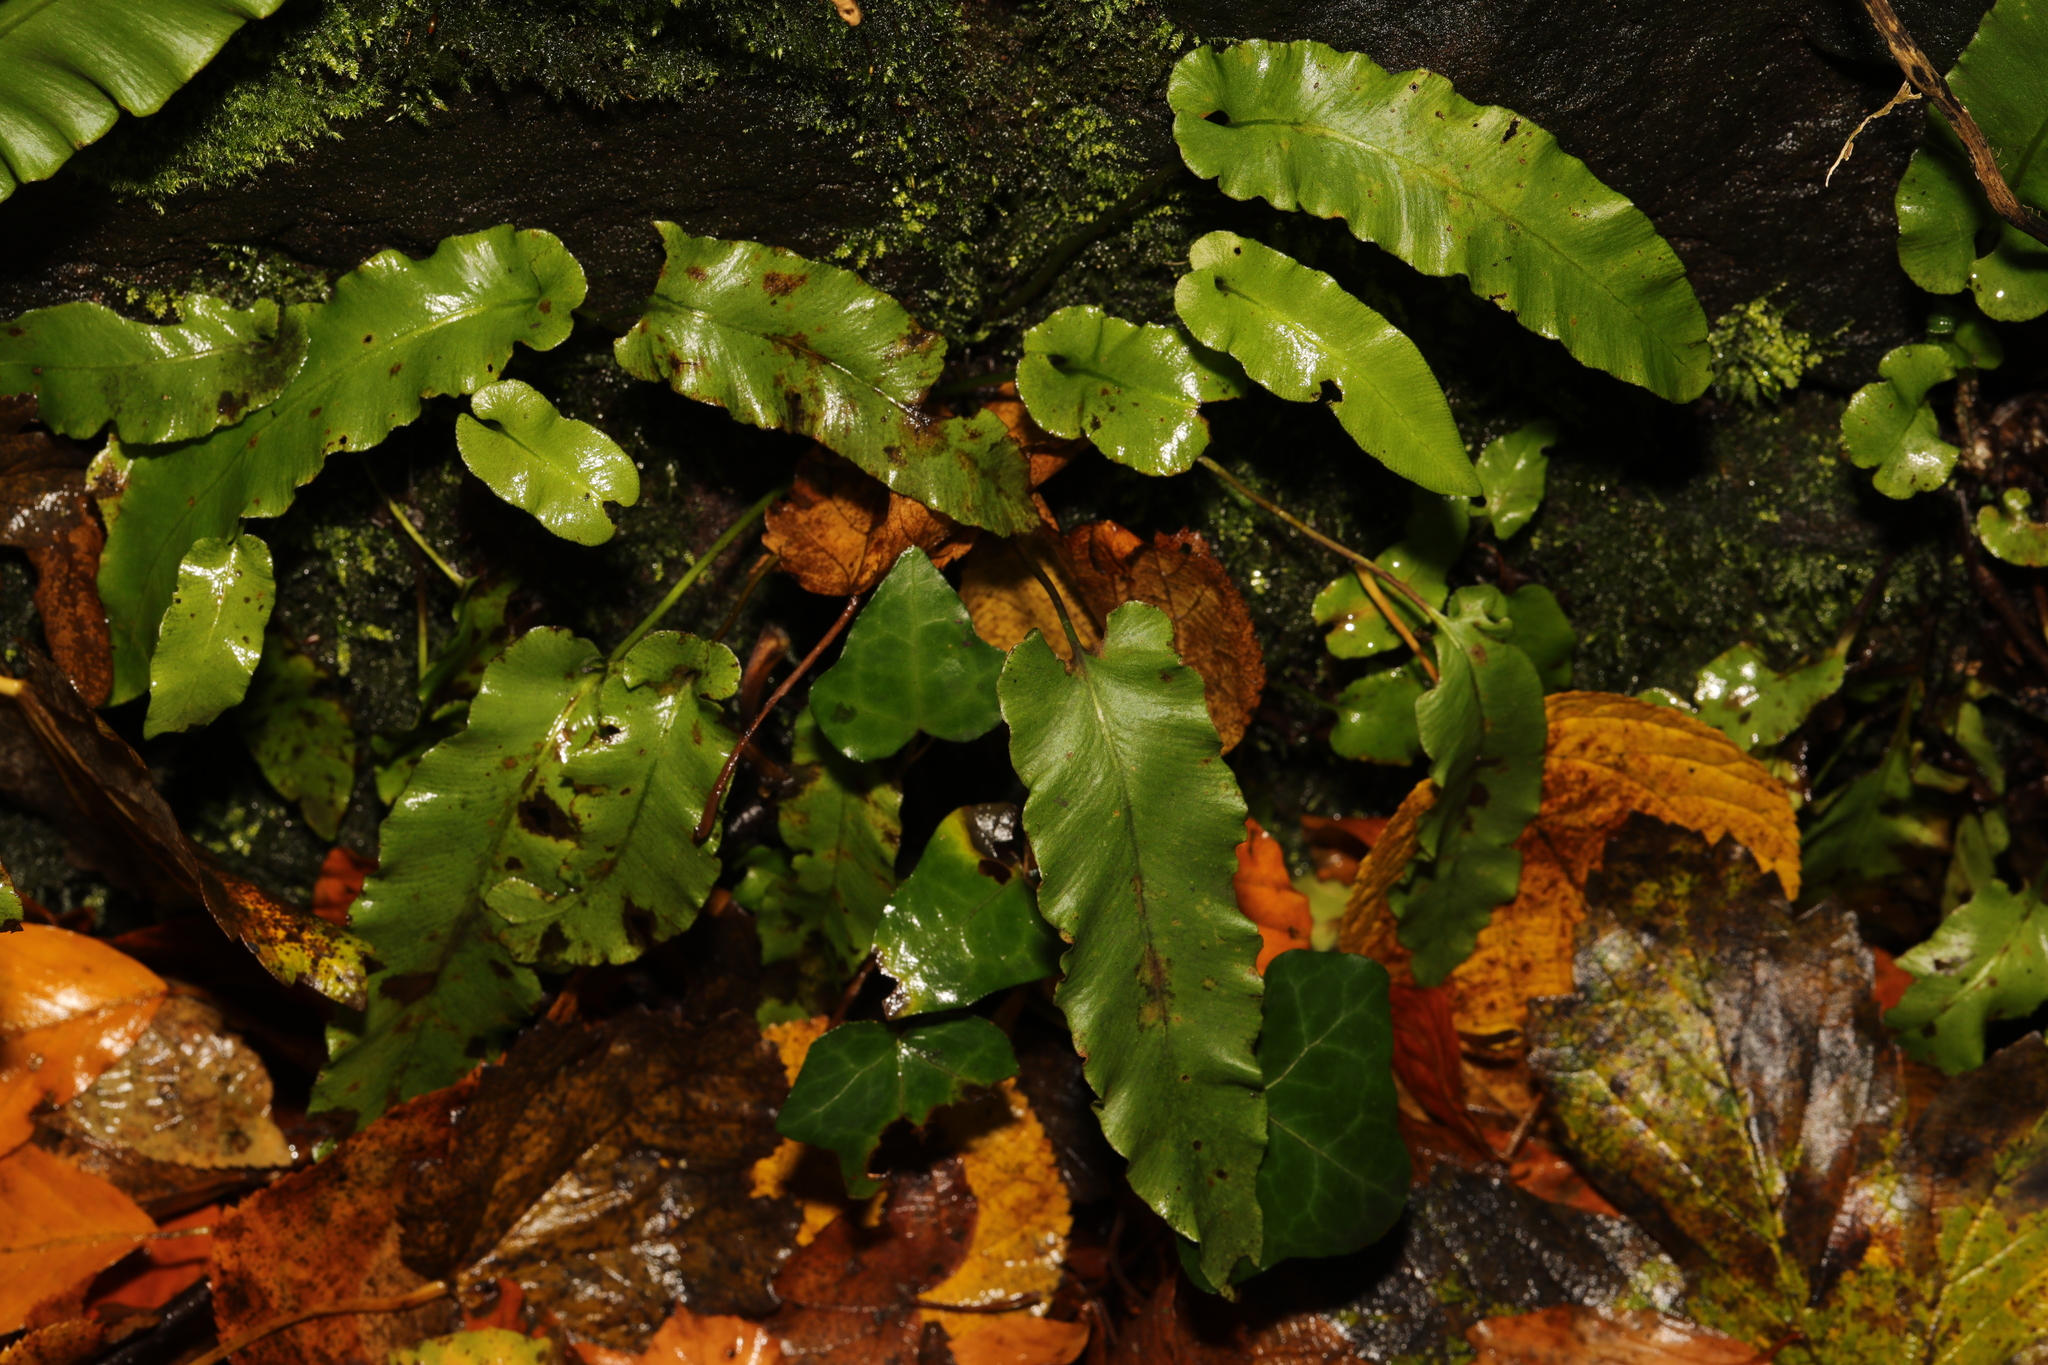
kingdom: Plantae
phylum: Tracheophyta
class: Polypodiopsida
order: Polypodiales
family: Aspleniaceae
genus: Asplenium
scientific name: Asplenium scolopendrium
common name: Hart's-tongue fern
